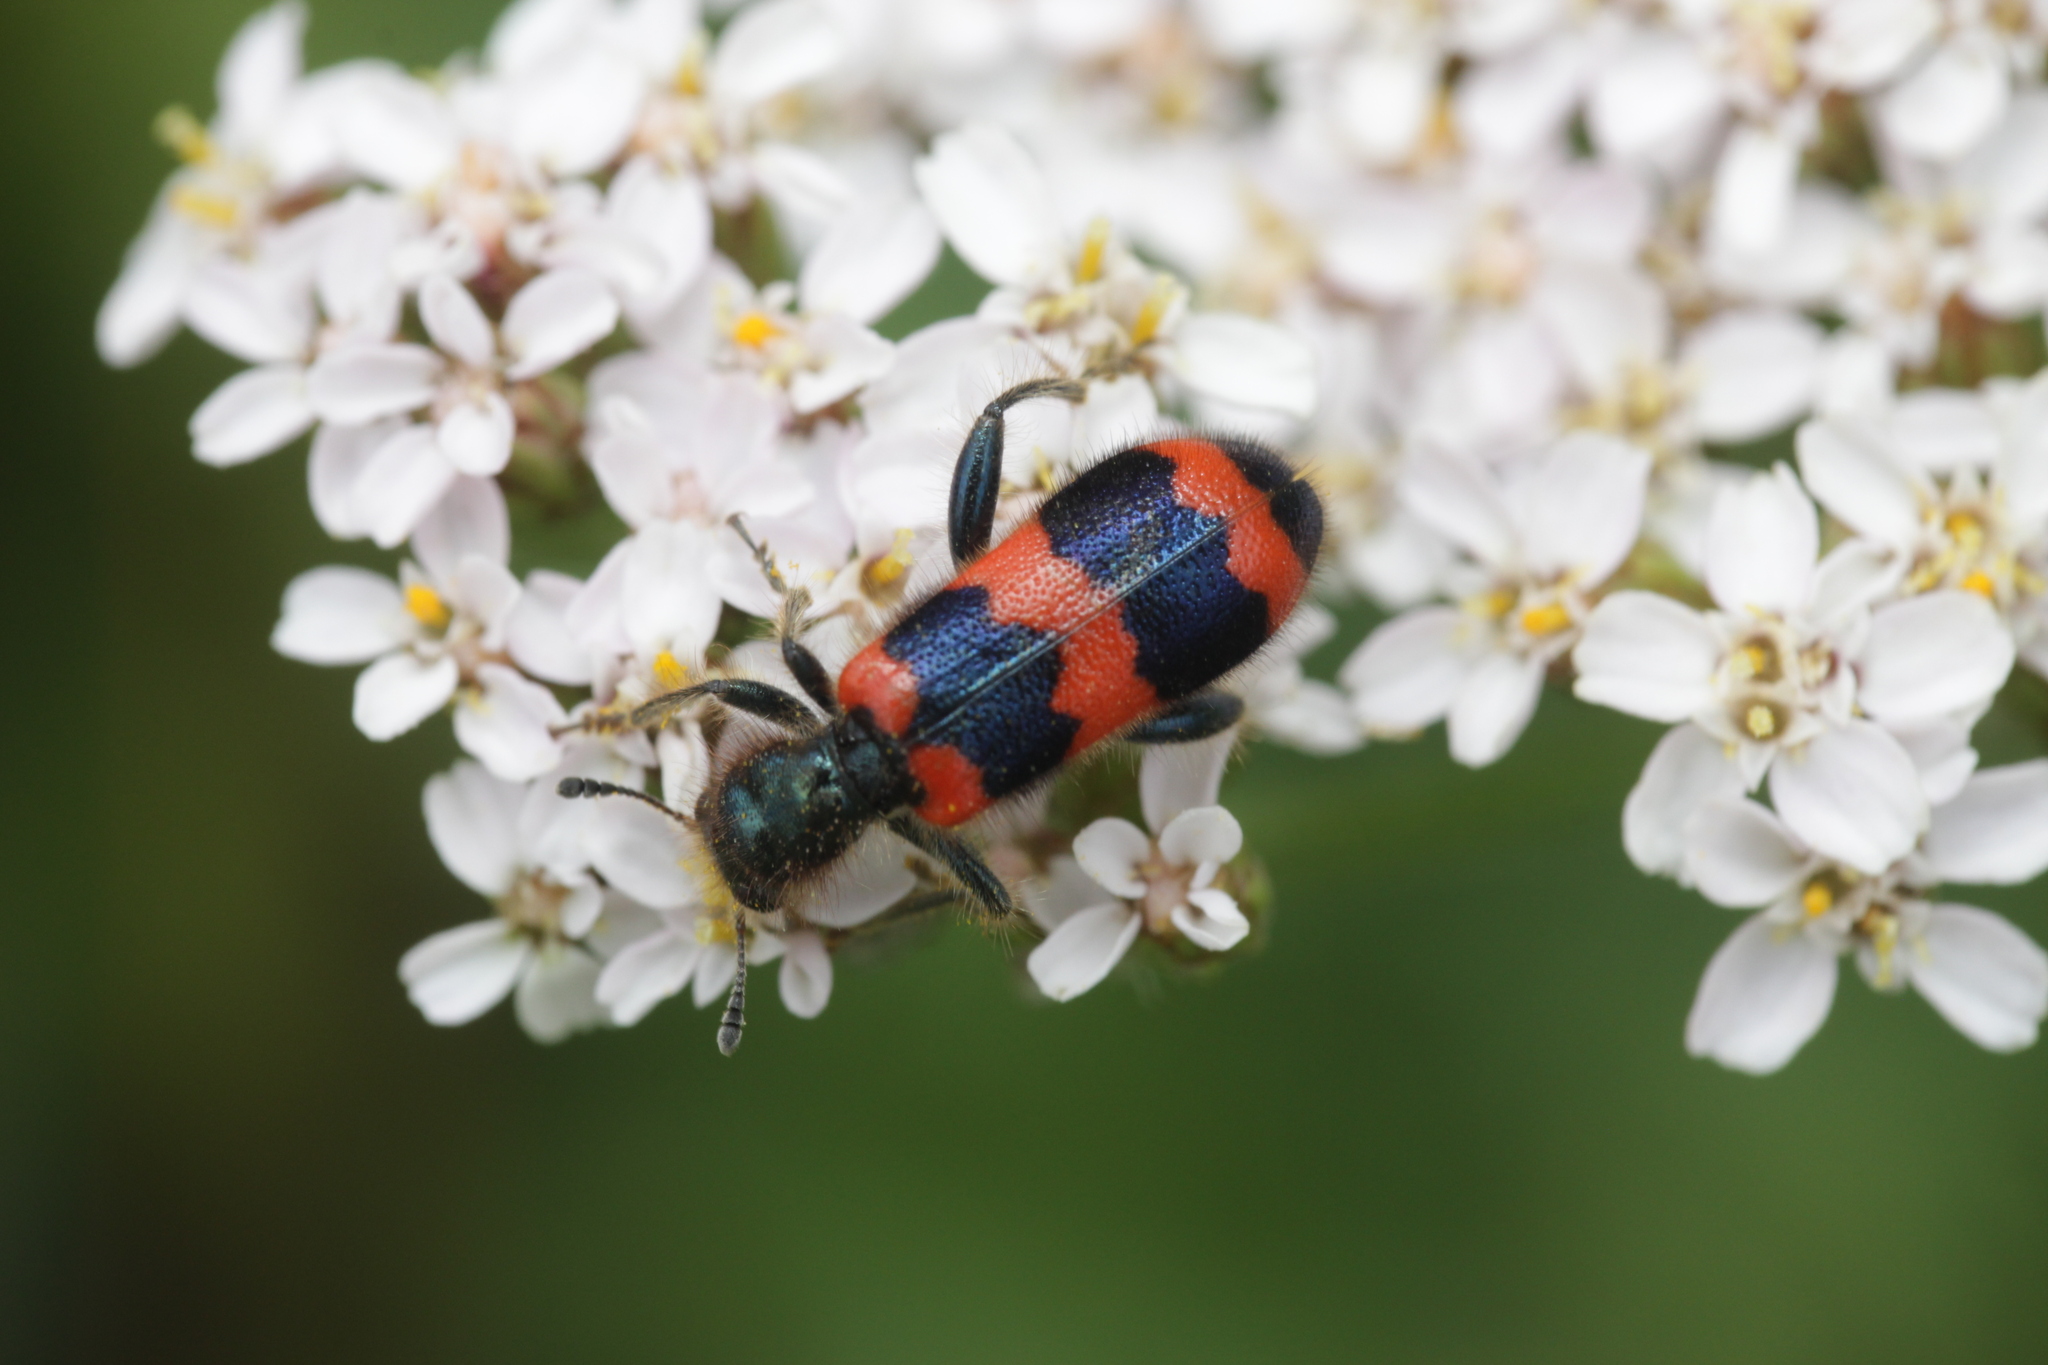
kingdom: Animalia
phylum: Arthropoda
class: Insecta
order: Coleoptera
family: Cleridae
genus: Trichodes
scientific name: Trichodes apiarius
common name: Bee-eating beetle
